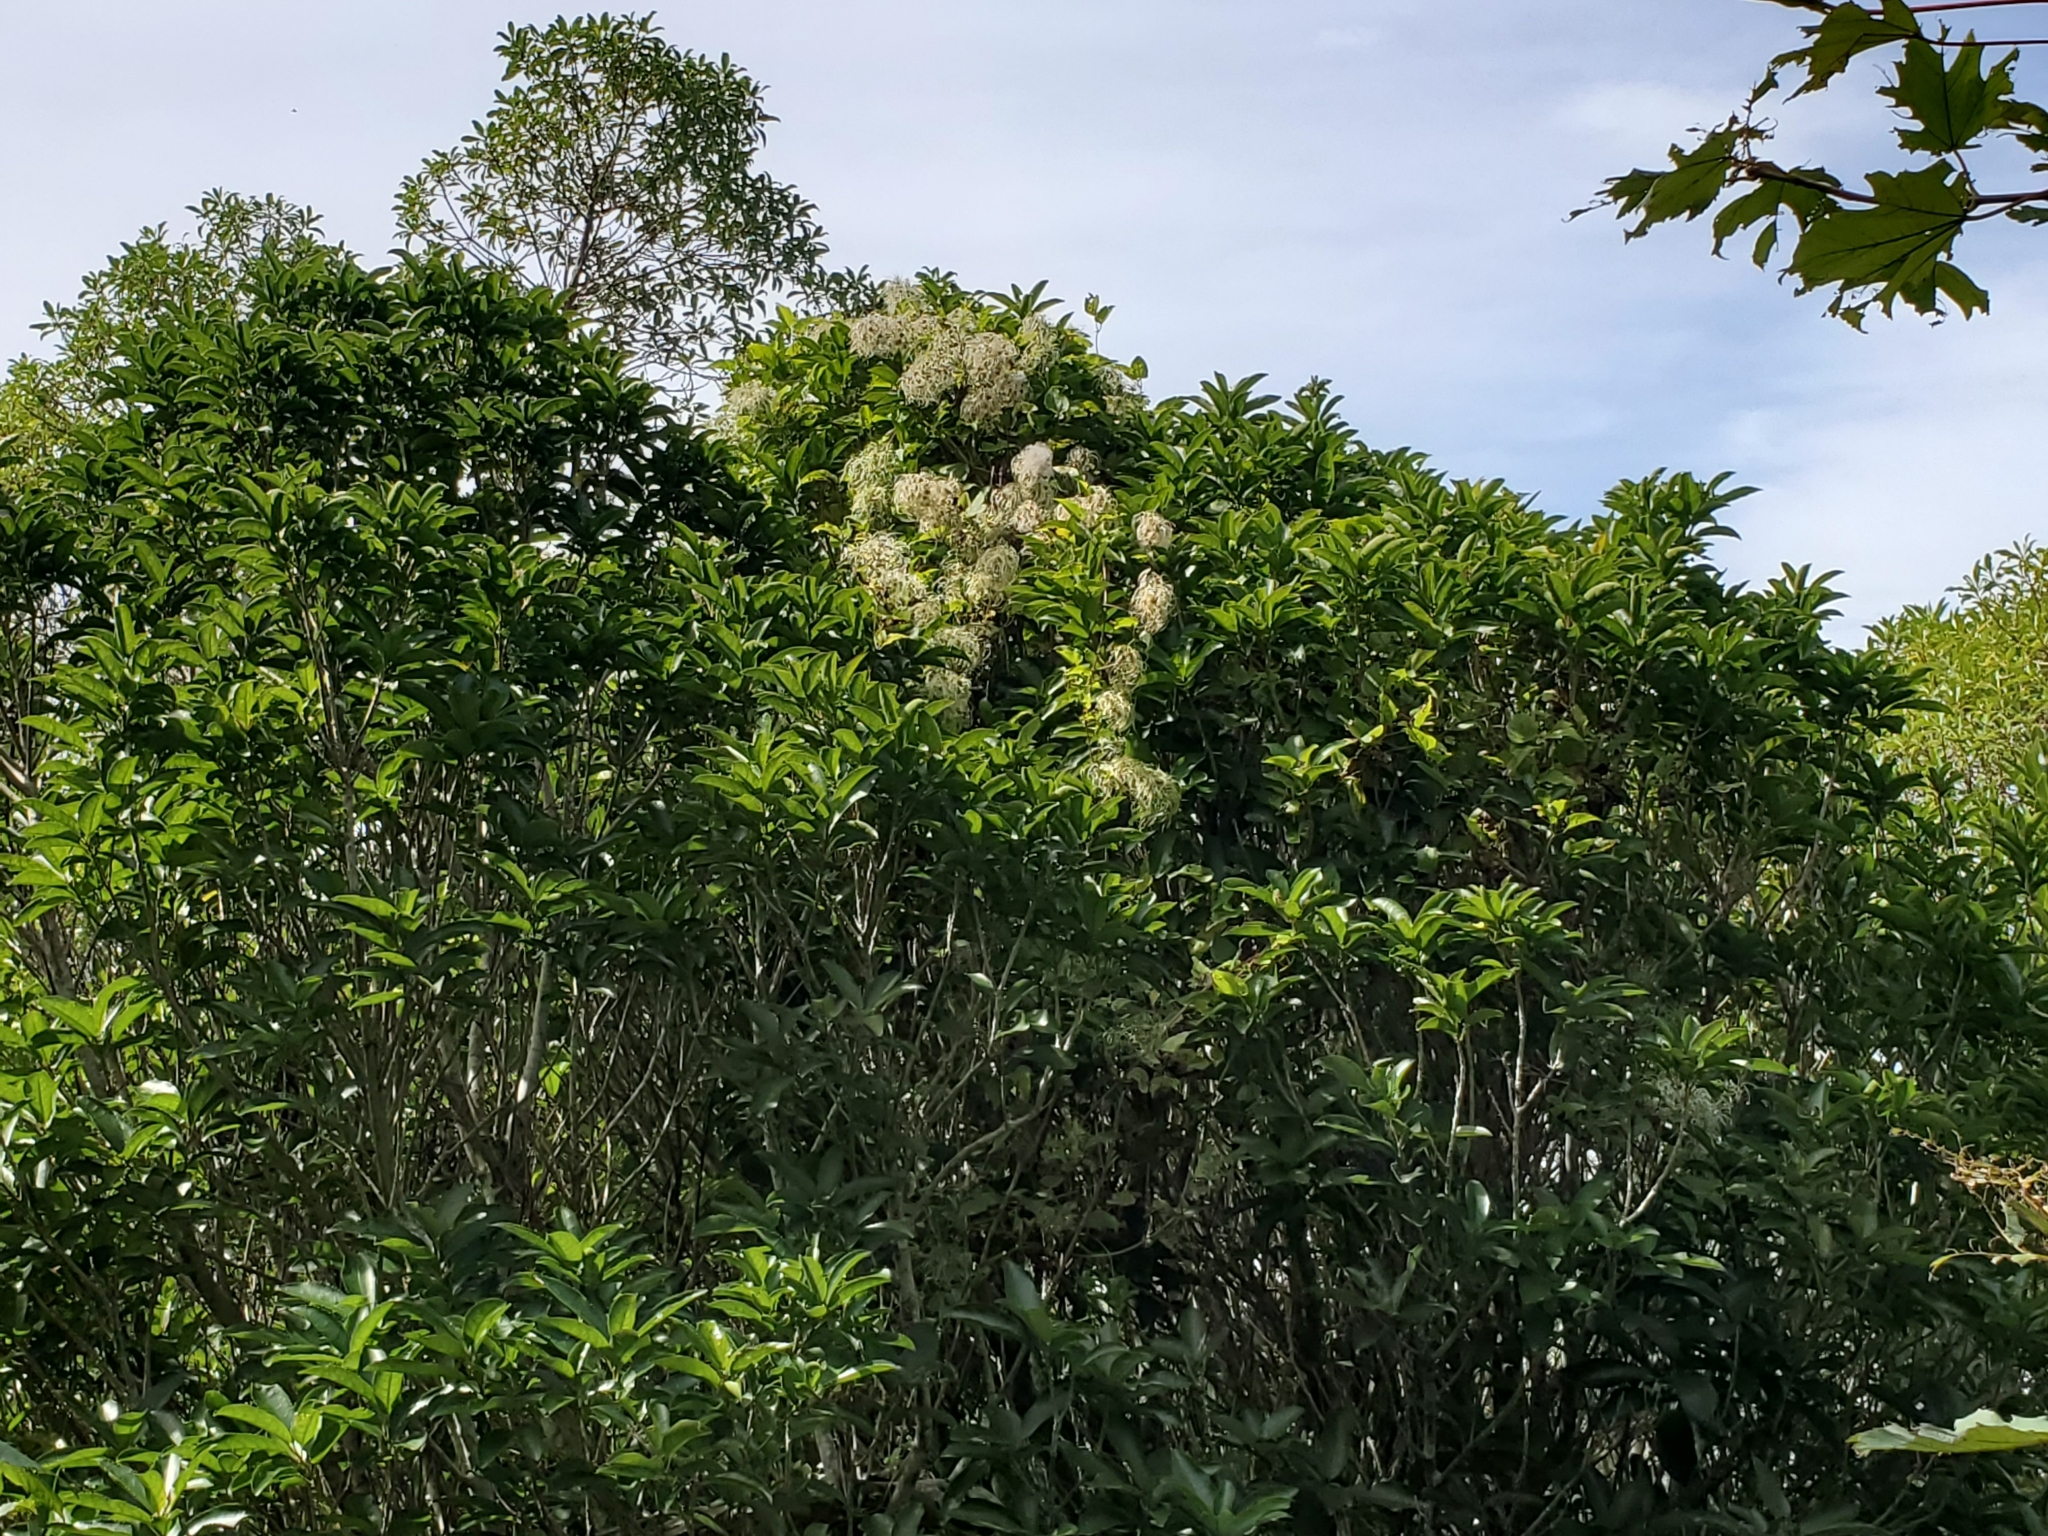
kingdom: Plantae
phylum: Tracheophyta
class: Magnoliopsida
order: Ranunculales
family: Ranunculaceae
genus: Clematis
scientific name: Clematis vitalba
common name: Evergreen clematis
